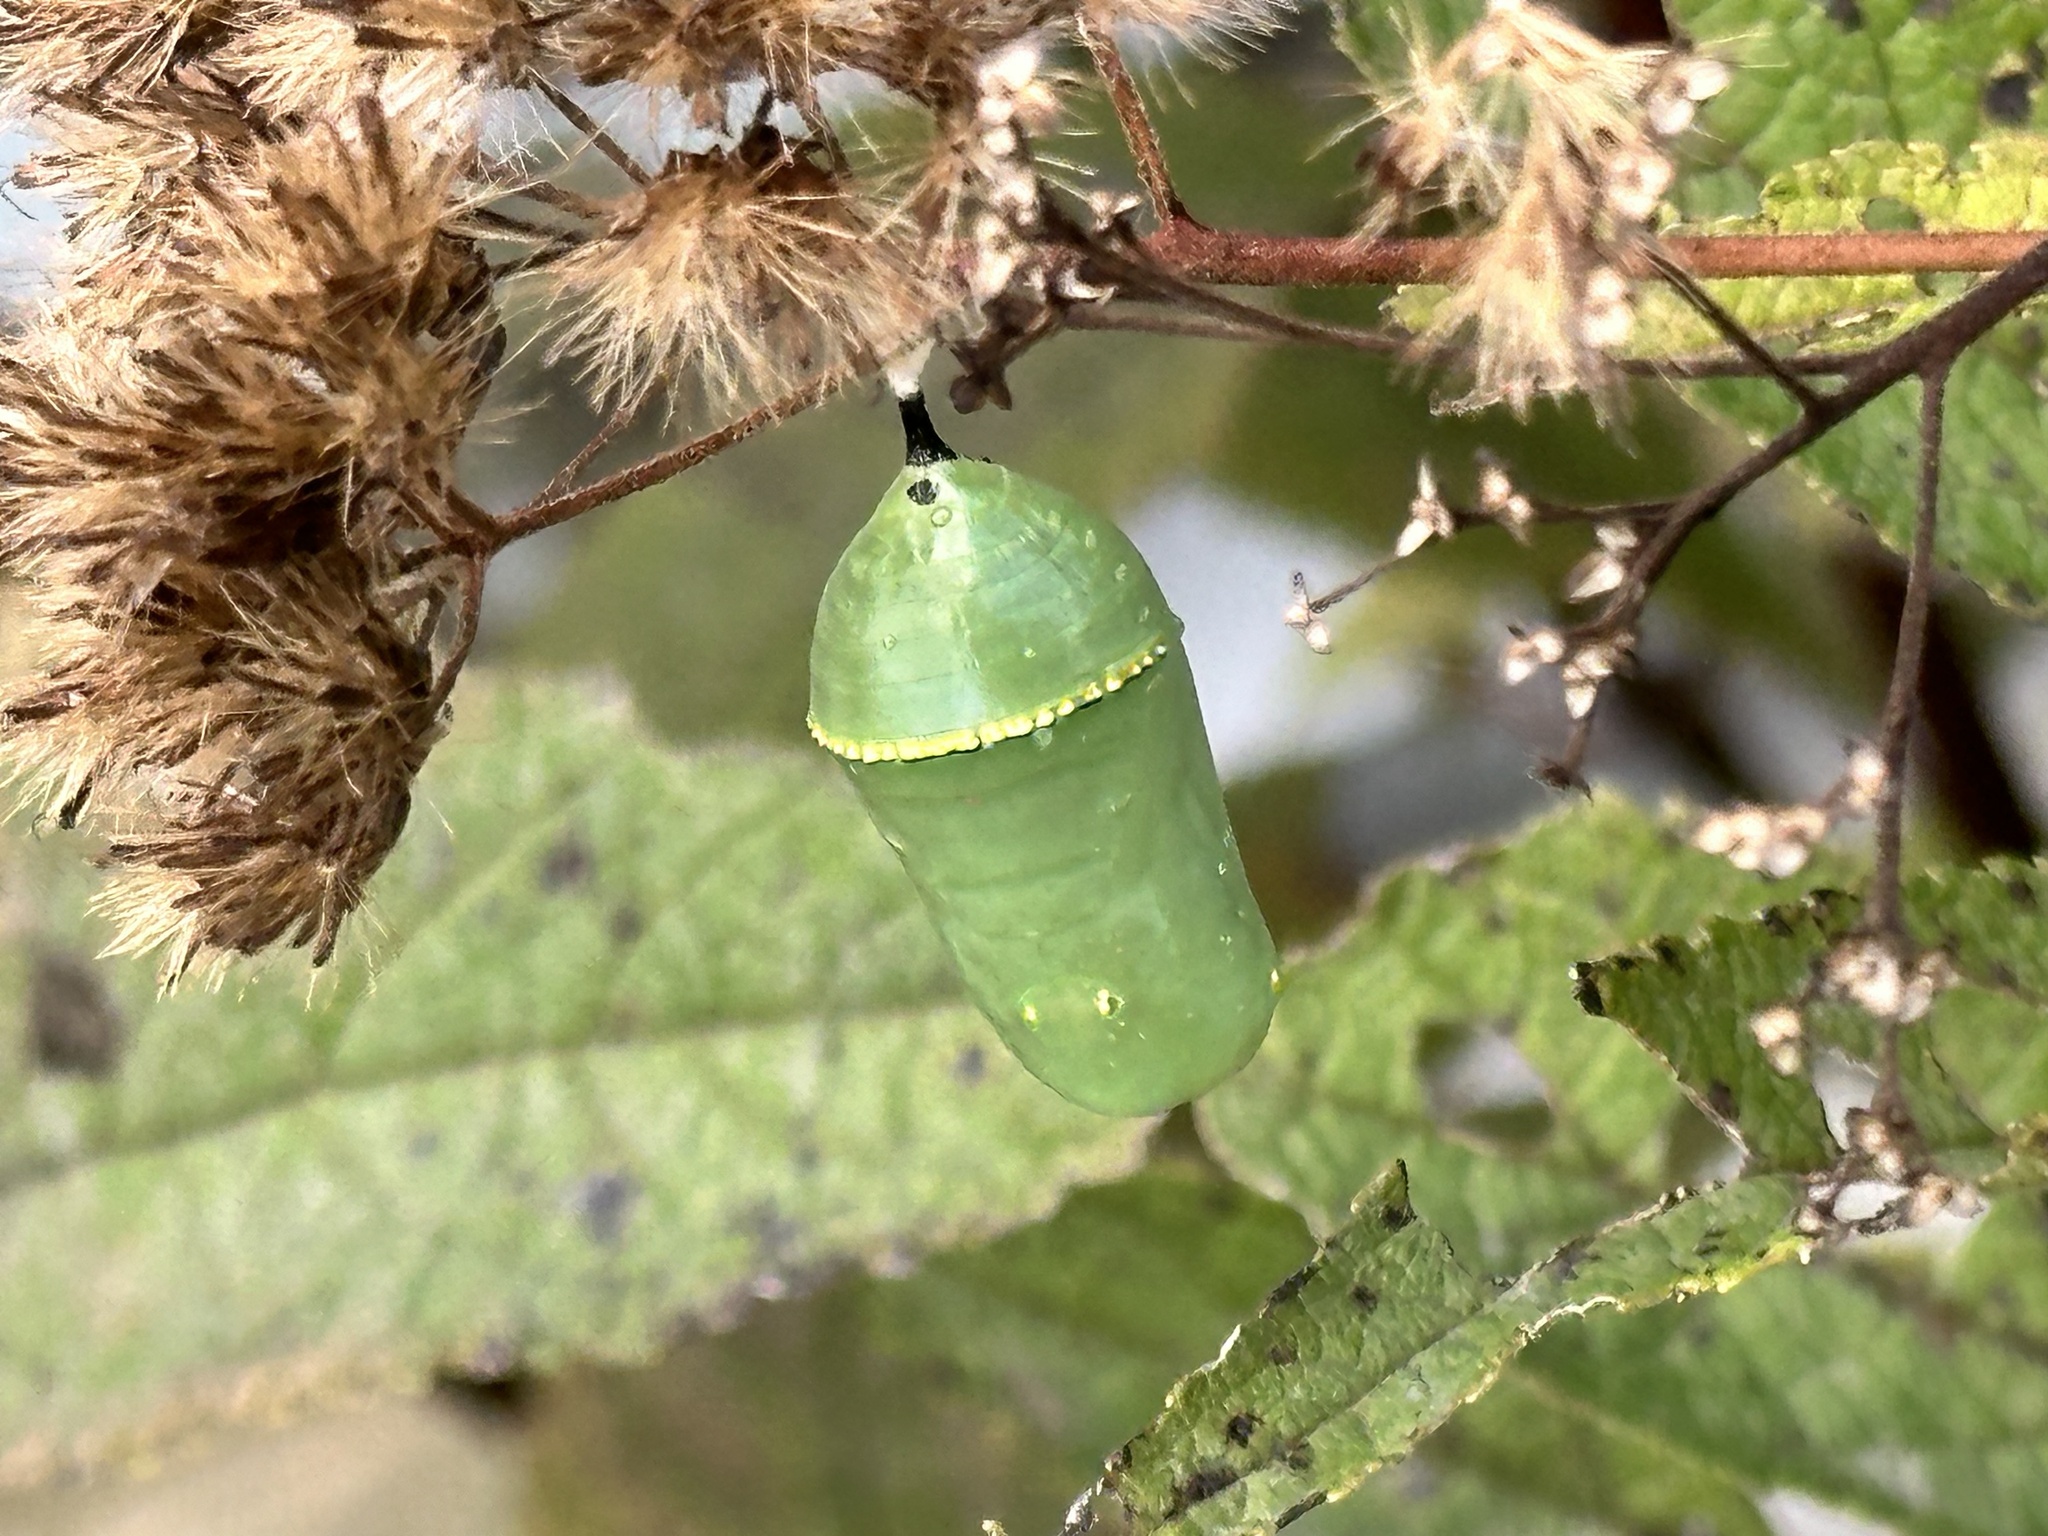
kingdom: Animalia
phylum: Arthropoda
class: Insecta
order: Lepidoptera
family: Nymphalidae
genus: Danaus
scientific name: Danaus plexippus
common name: Monarch
